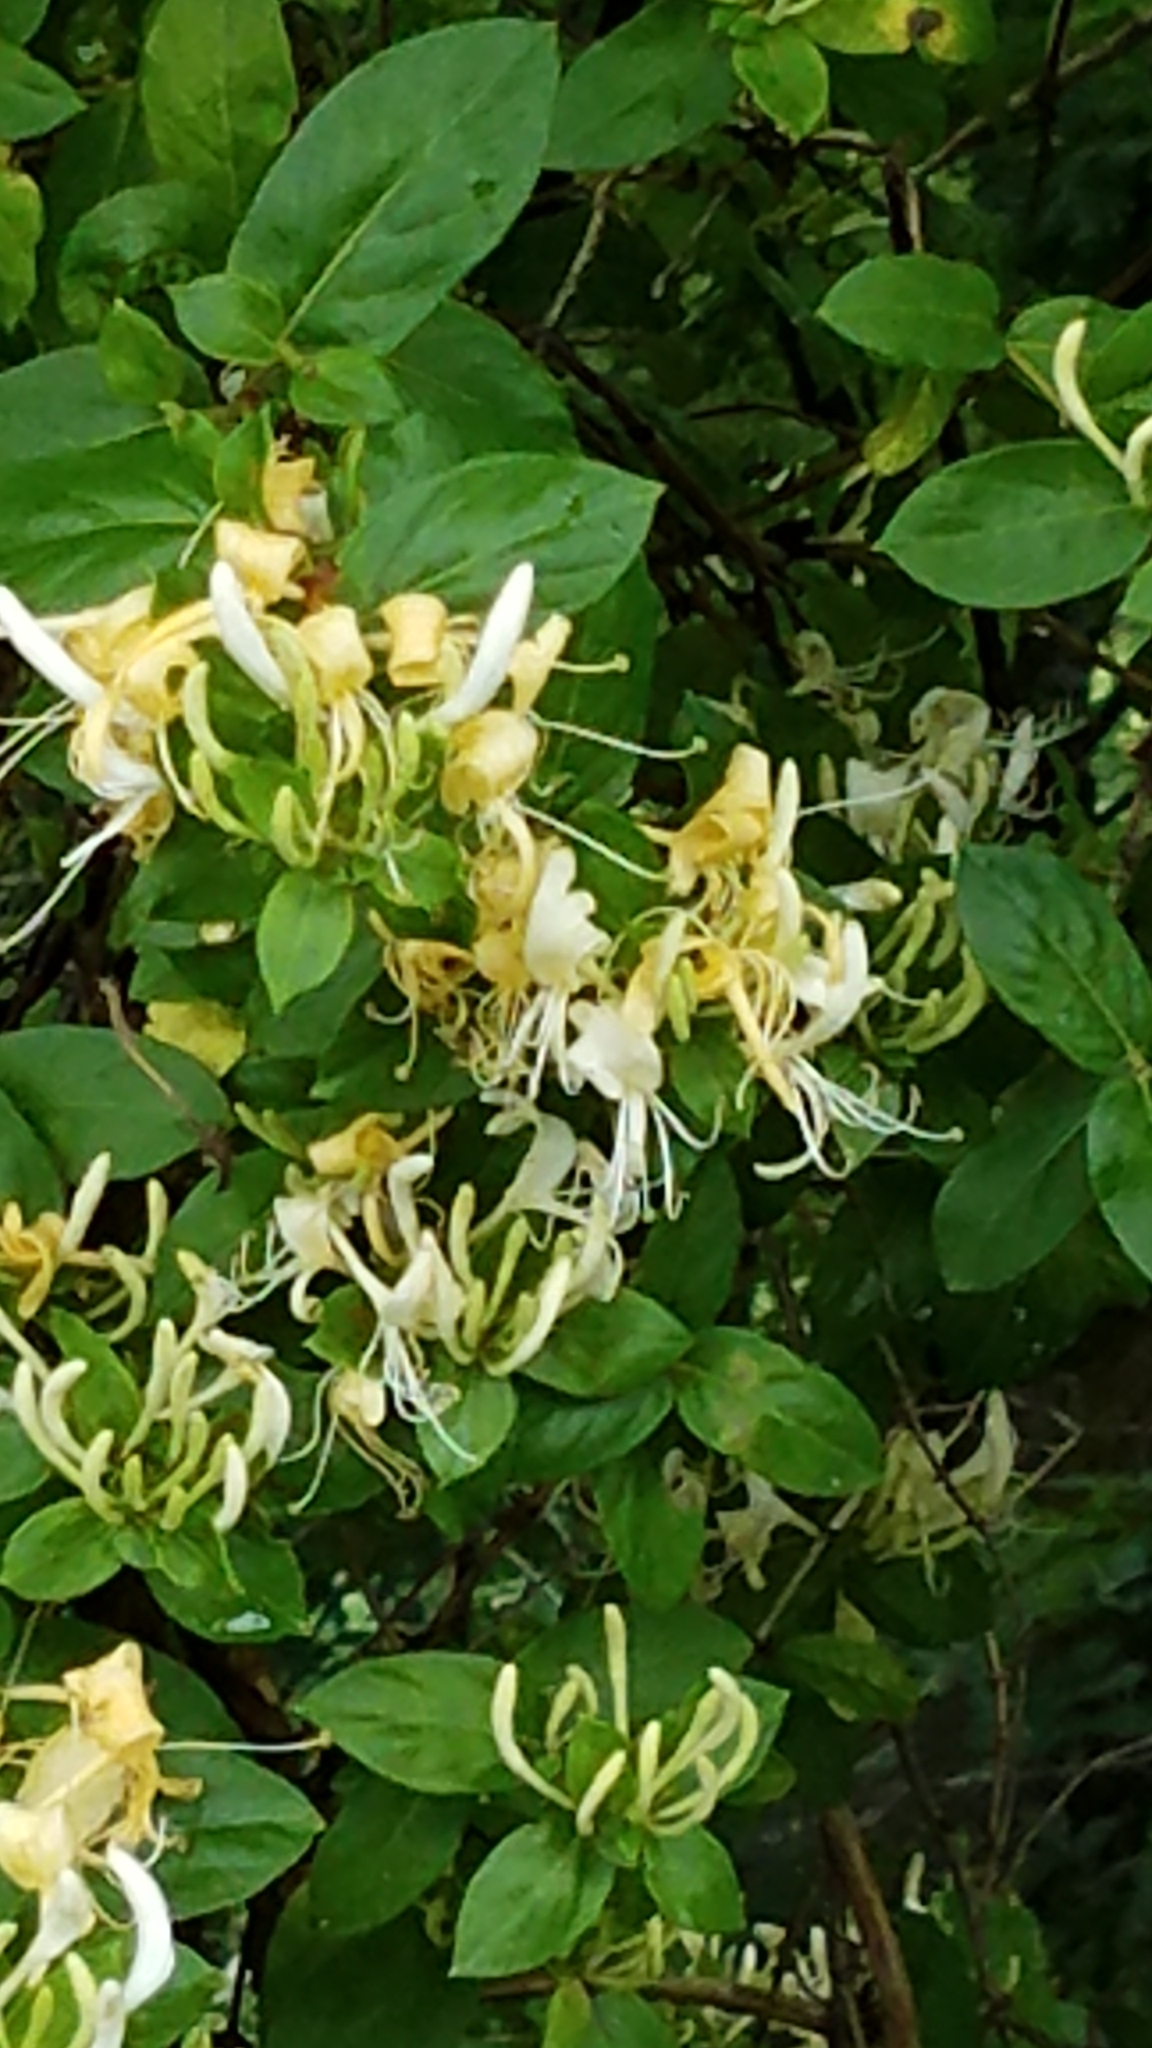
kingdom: Plantae
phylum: Tracheophyta
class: Magnoliopsida
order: Dipsacales
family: Caprifoliaceae
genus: Lonicera
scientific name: Lonicera japonica
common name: Japanese honeysuckle
